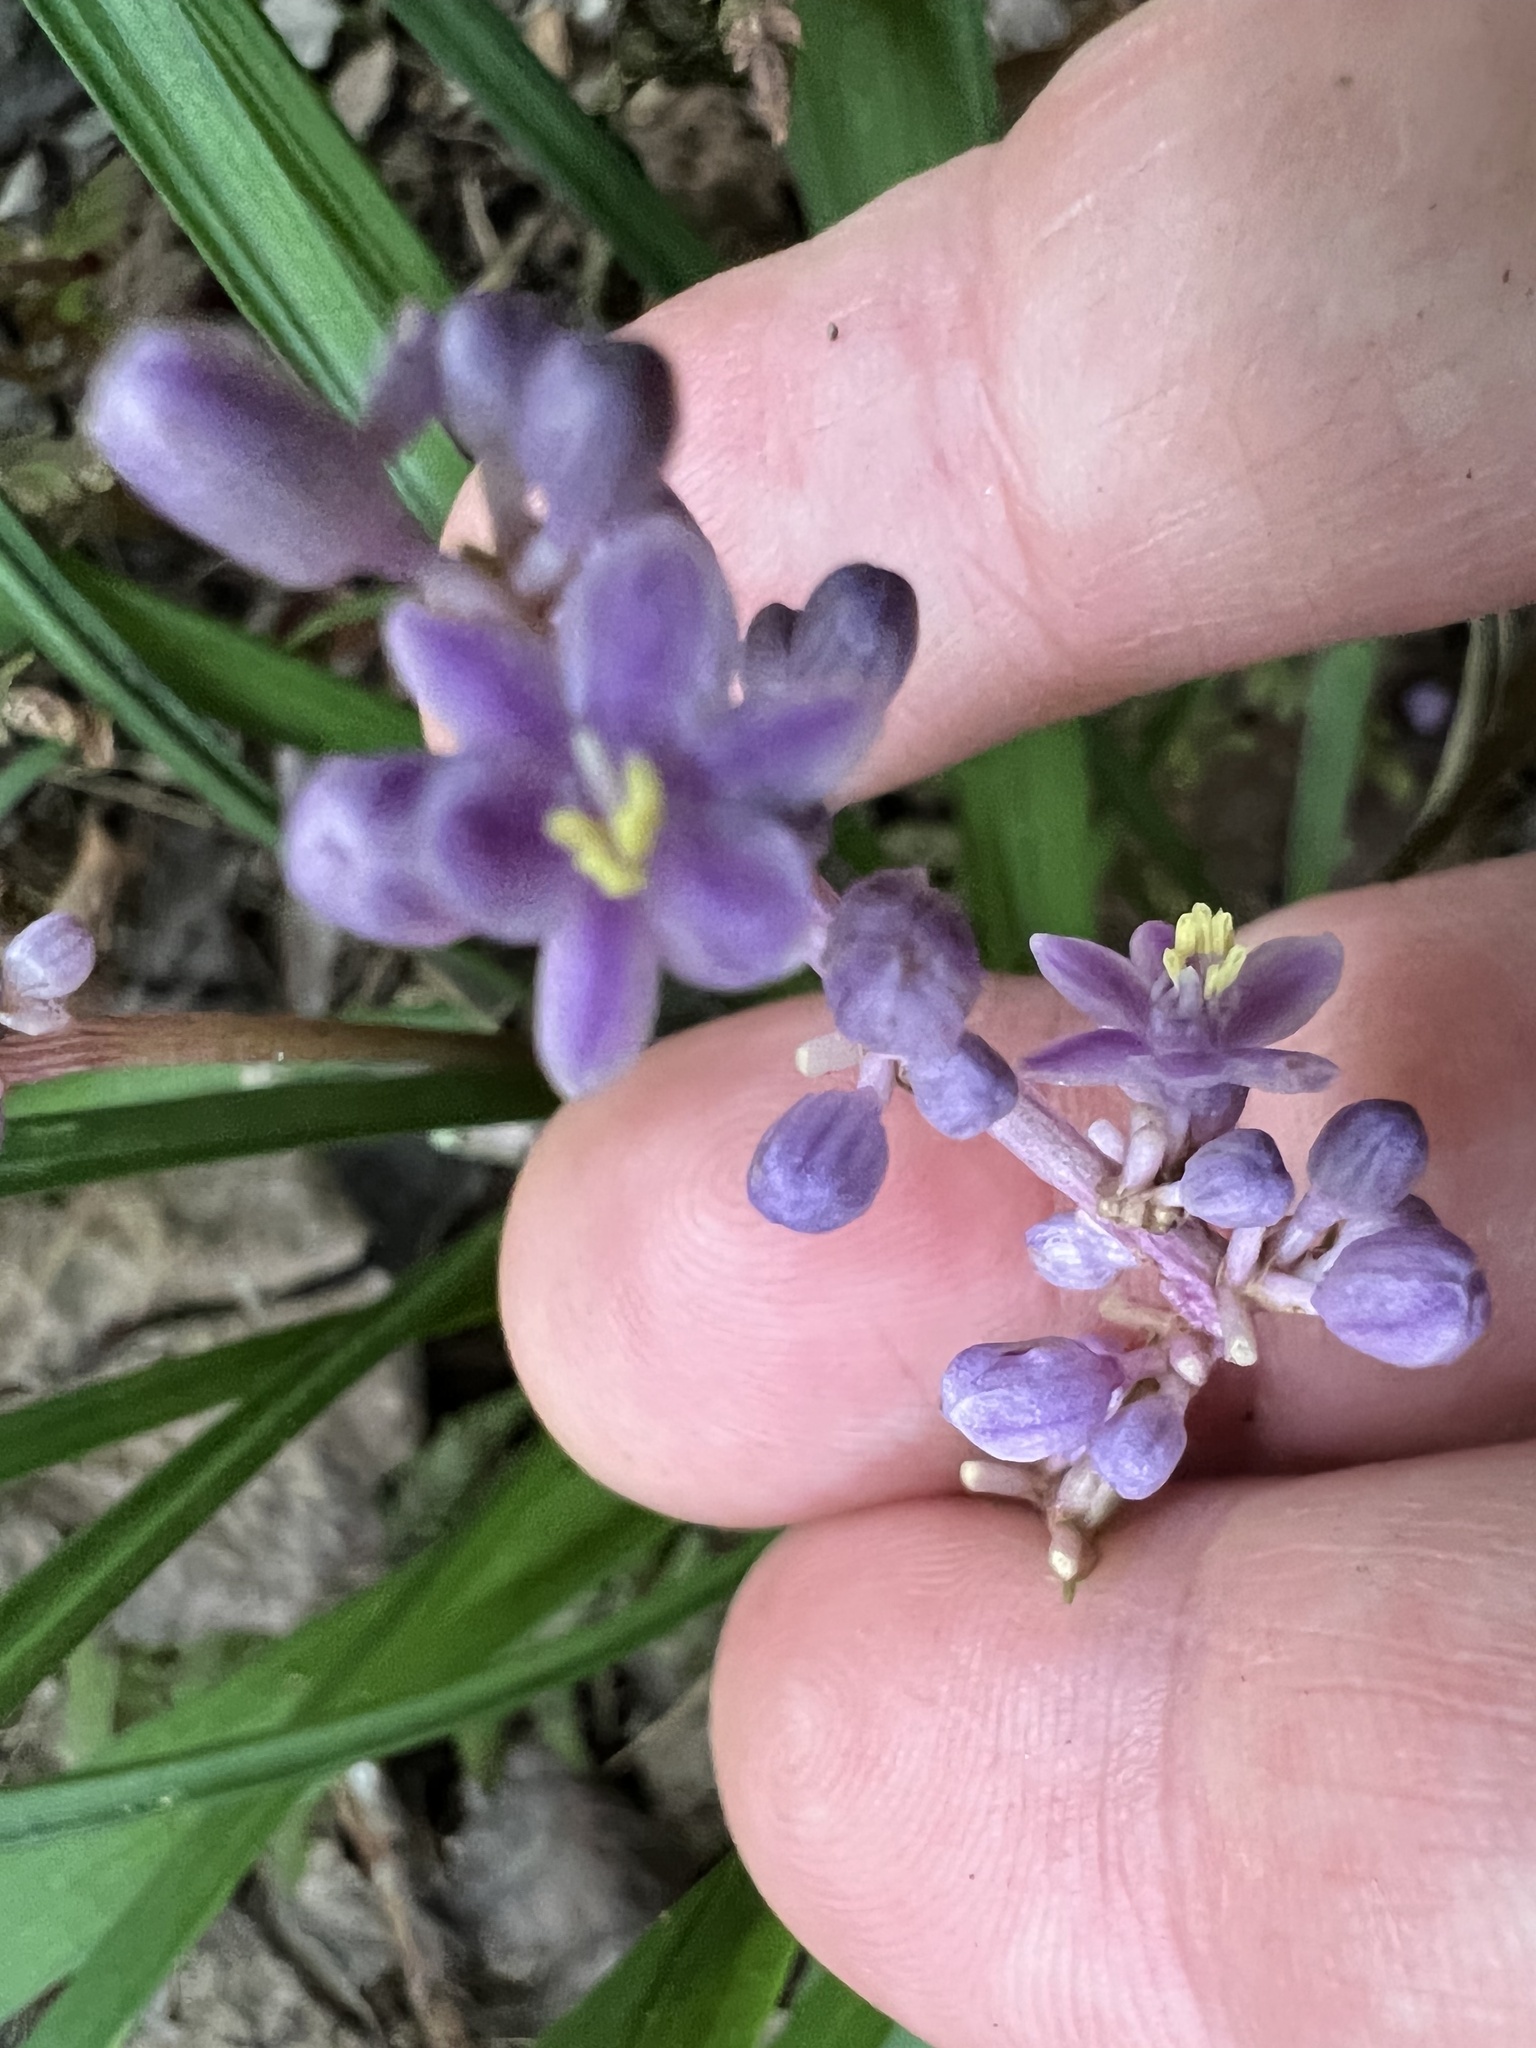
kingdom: Plantae
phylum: Tracheophyta
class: Liliopsida
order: Asparagales
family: Asparagaceae
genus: Liriope
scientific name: Liriope spicata
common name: Creeping liriope
